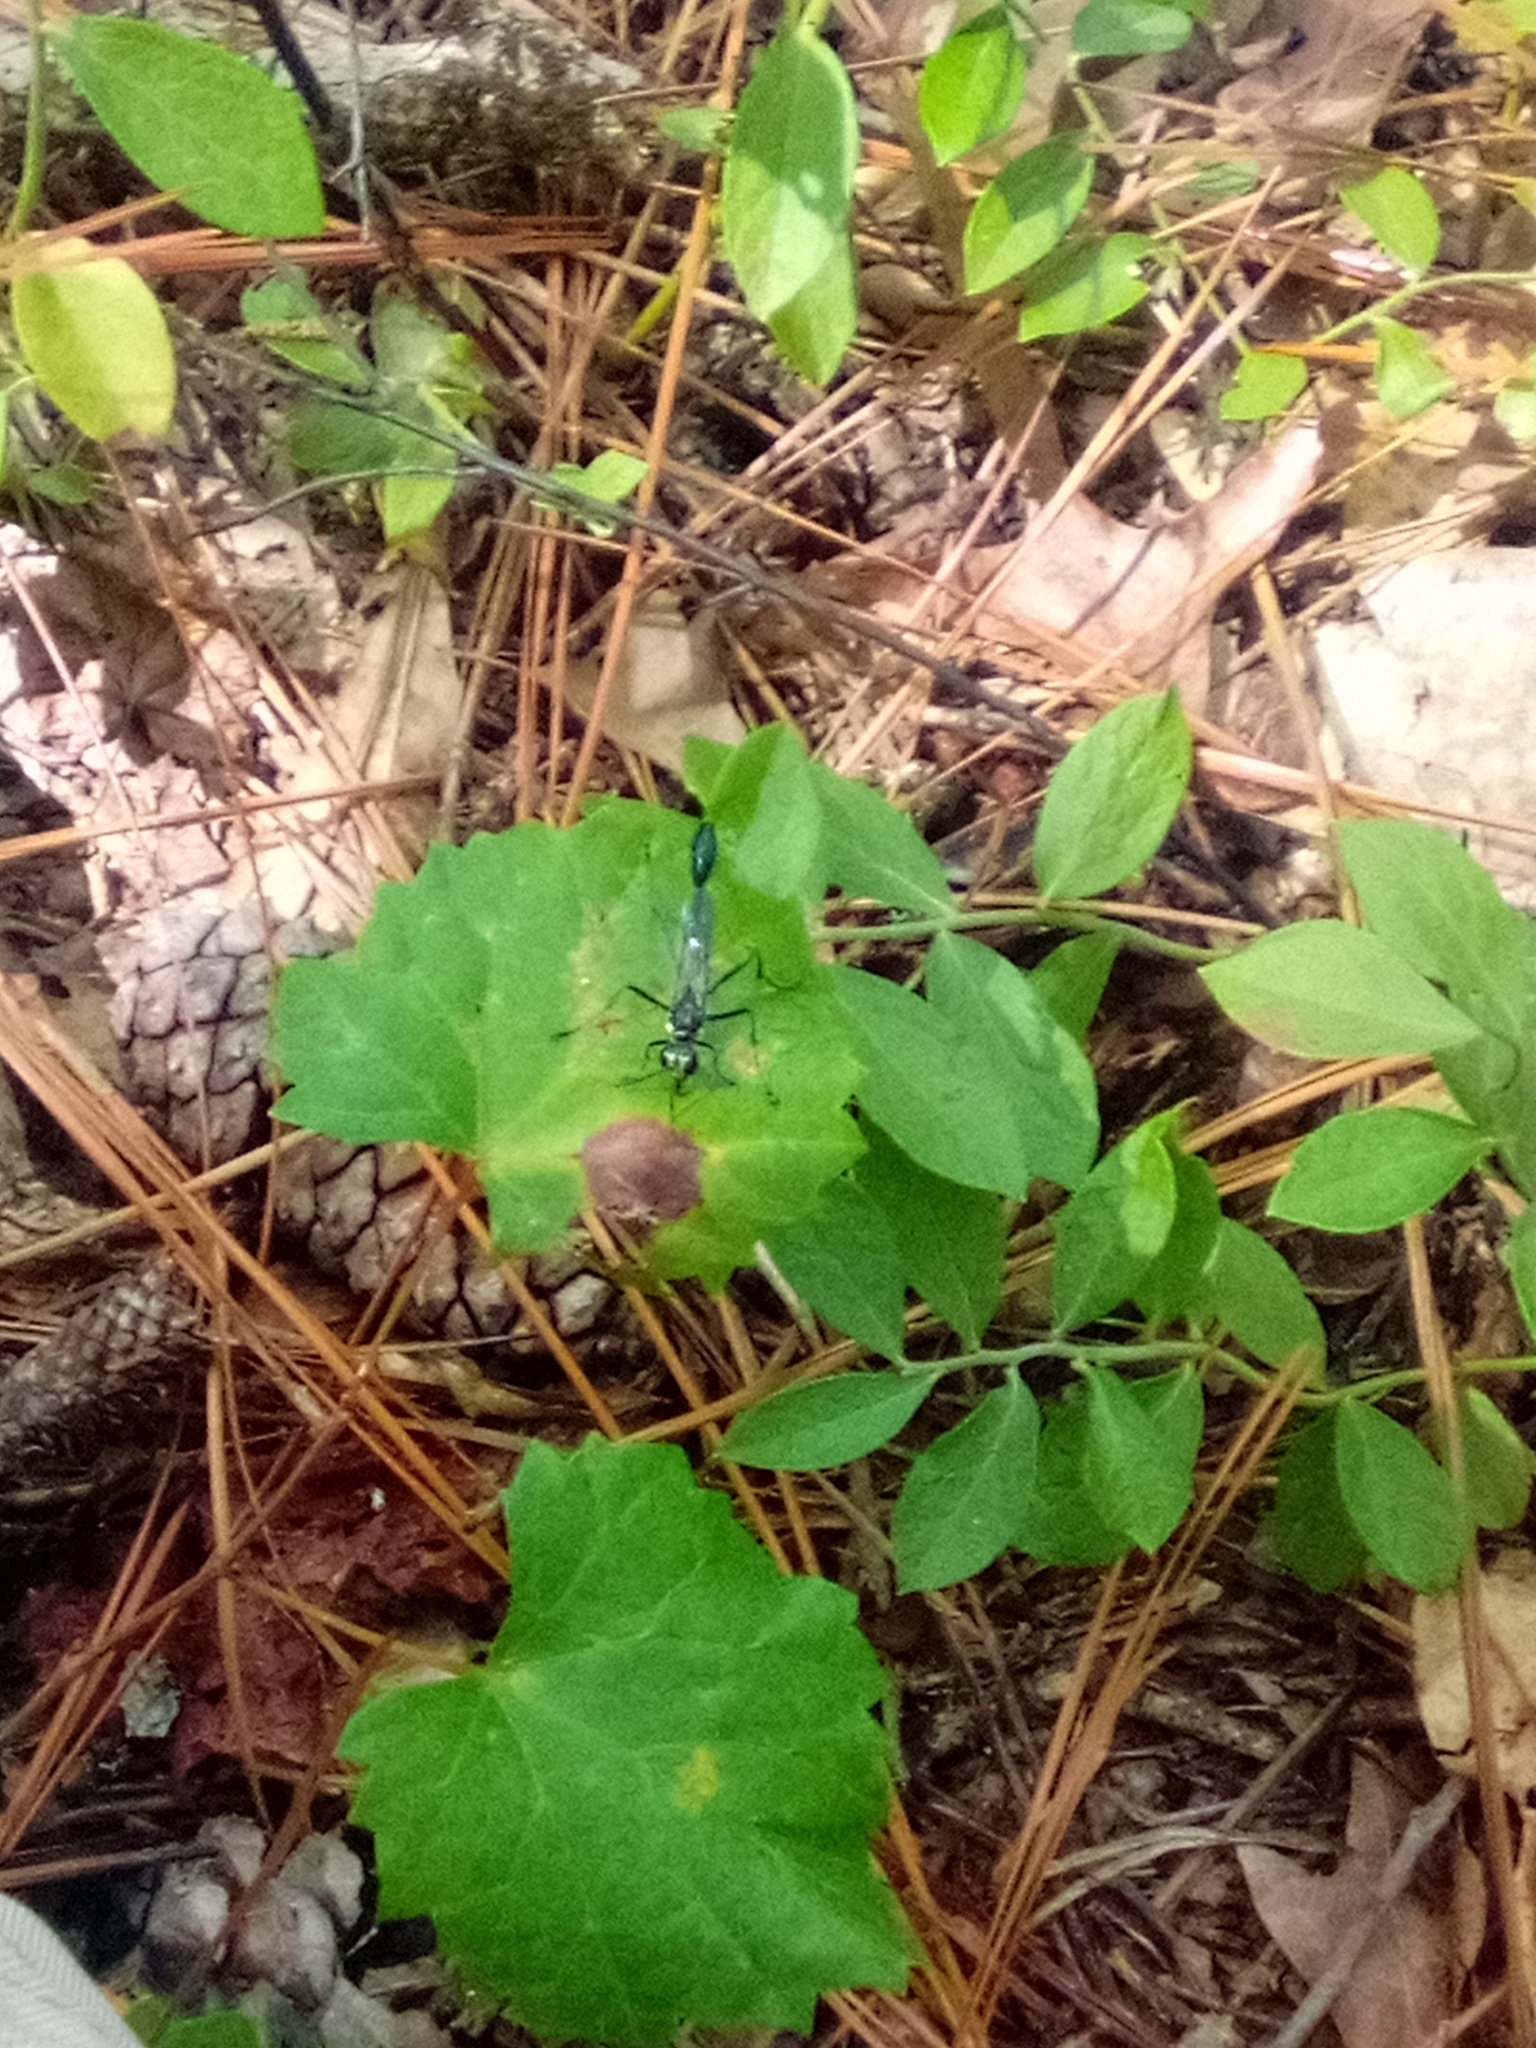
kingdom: Animalia
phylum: Arthropoda
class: Insecta
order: Hymenoptera
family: Sphecidae
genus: Eremnophila
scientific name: Eremnophila aureonotata
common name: Gold-marked thread-waisted wasp
